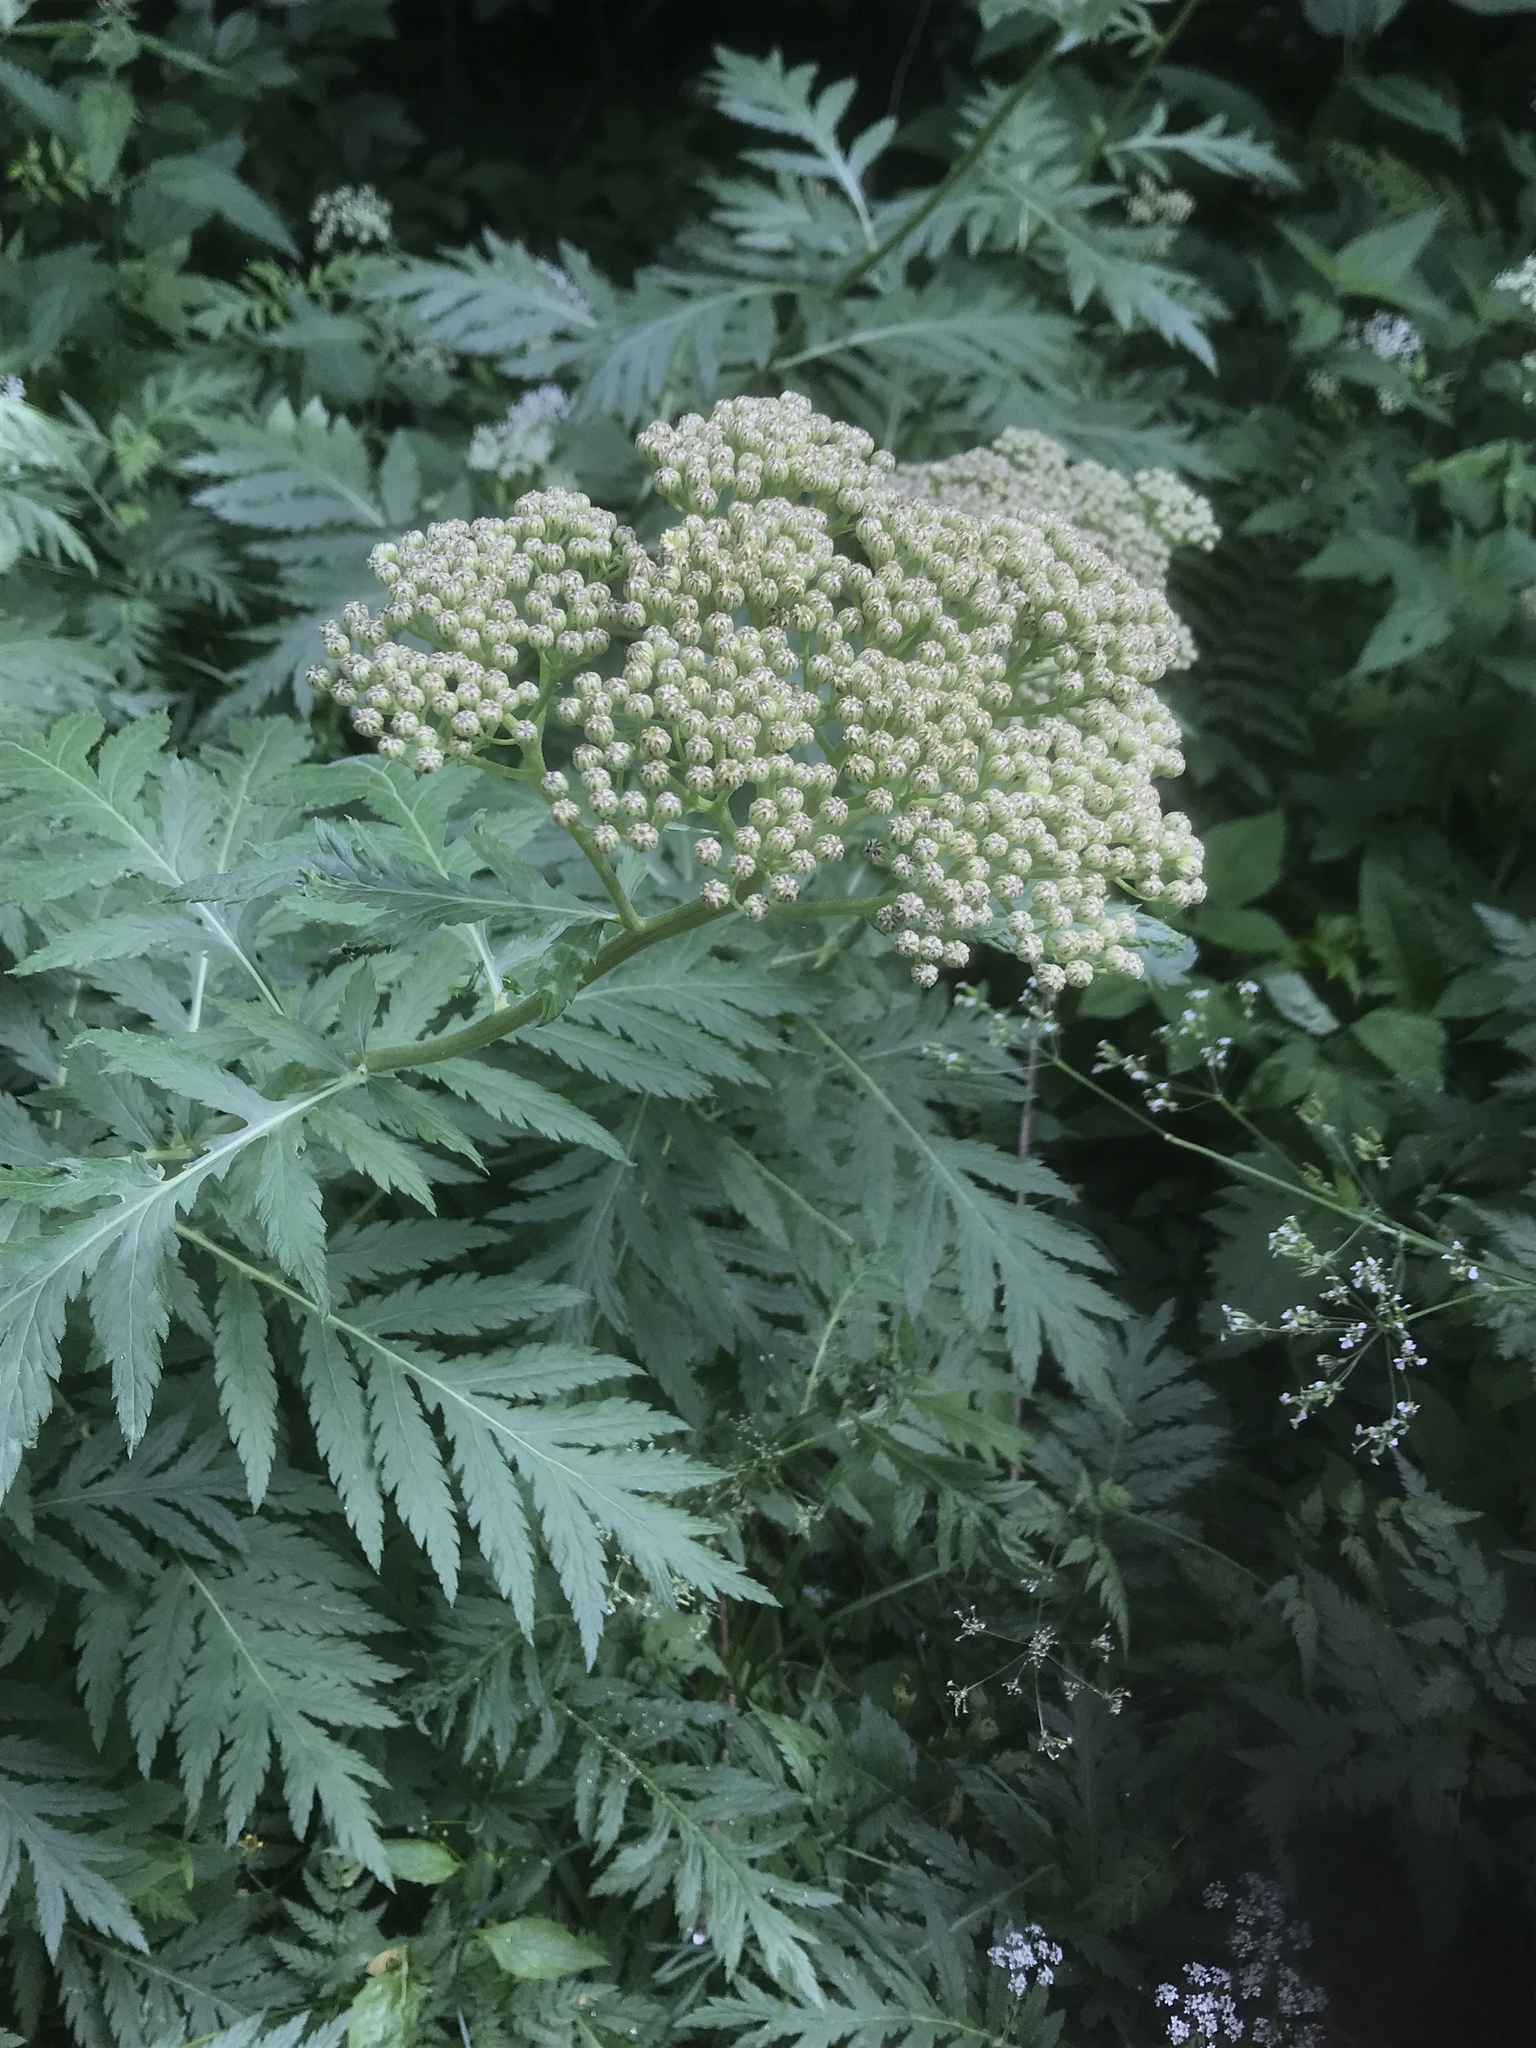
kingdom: Plantae
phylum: Tracheophyta
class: Magnoliopsida
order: Asterales
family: Asteraceae
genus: Tanacetum
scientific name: Tanacetum macrophyllum
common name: Rayed tansy
